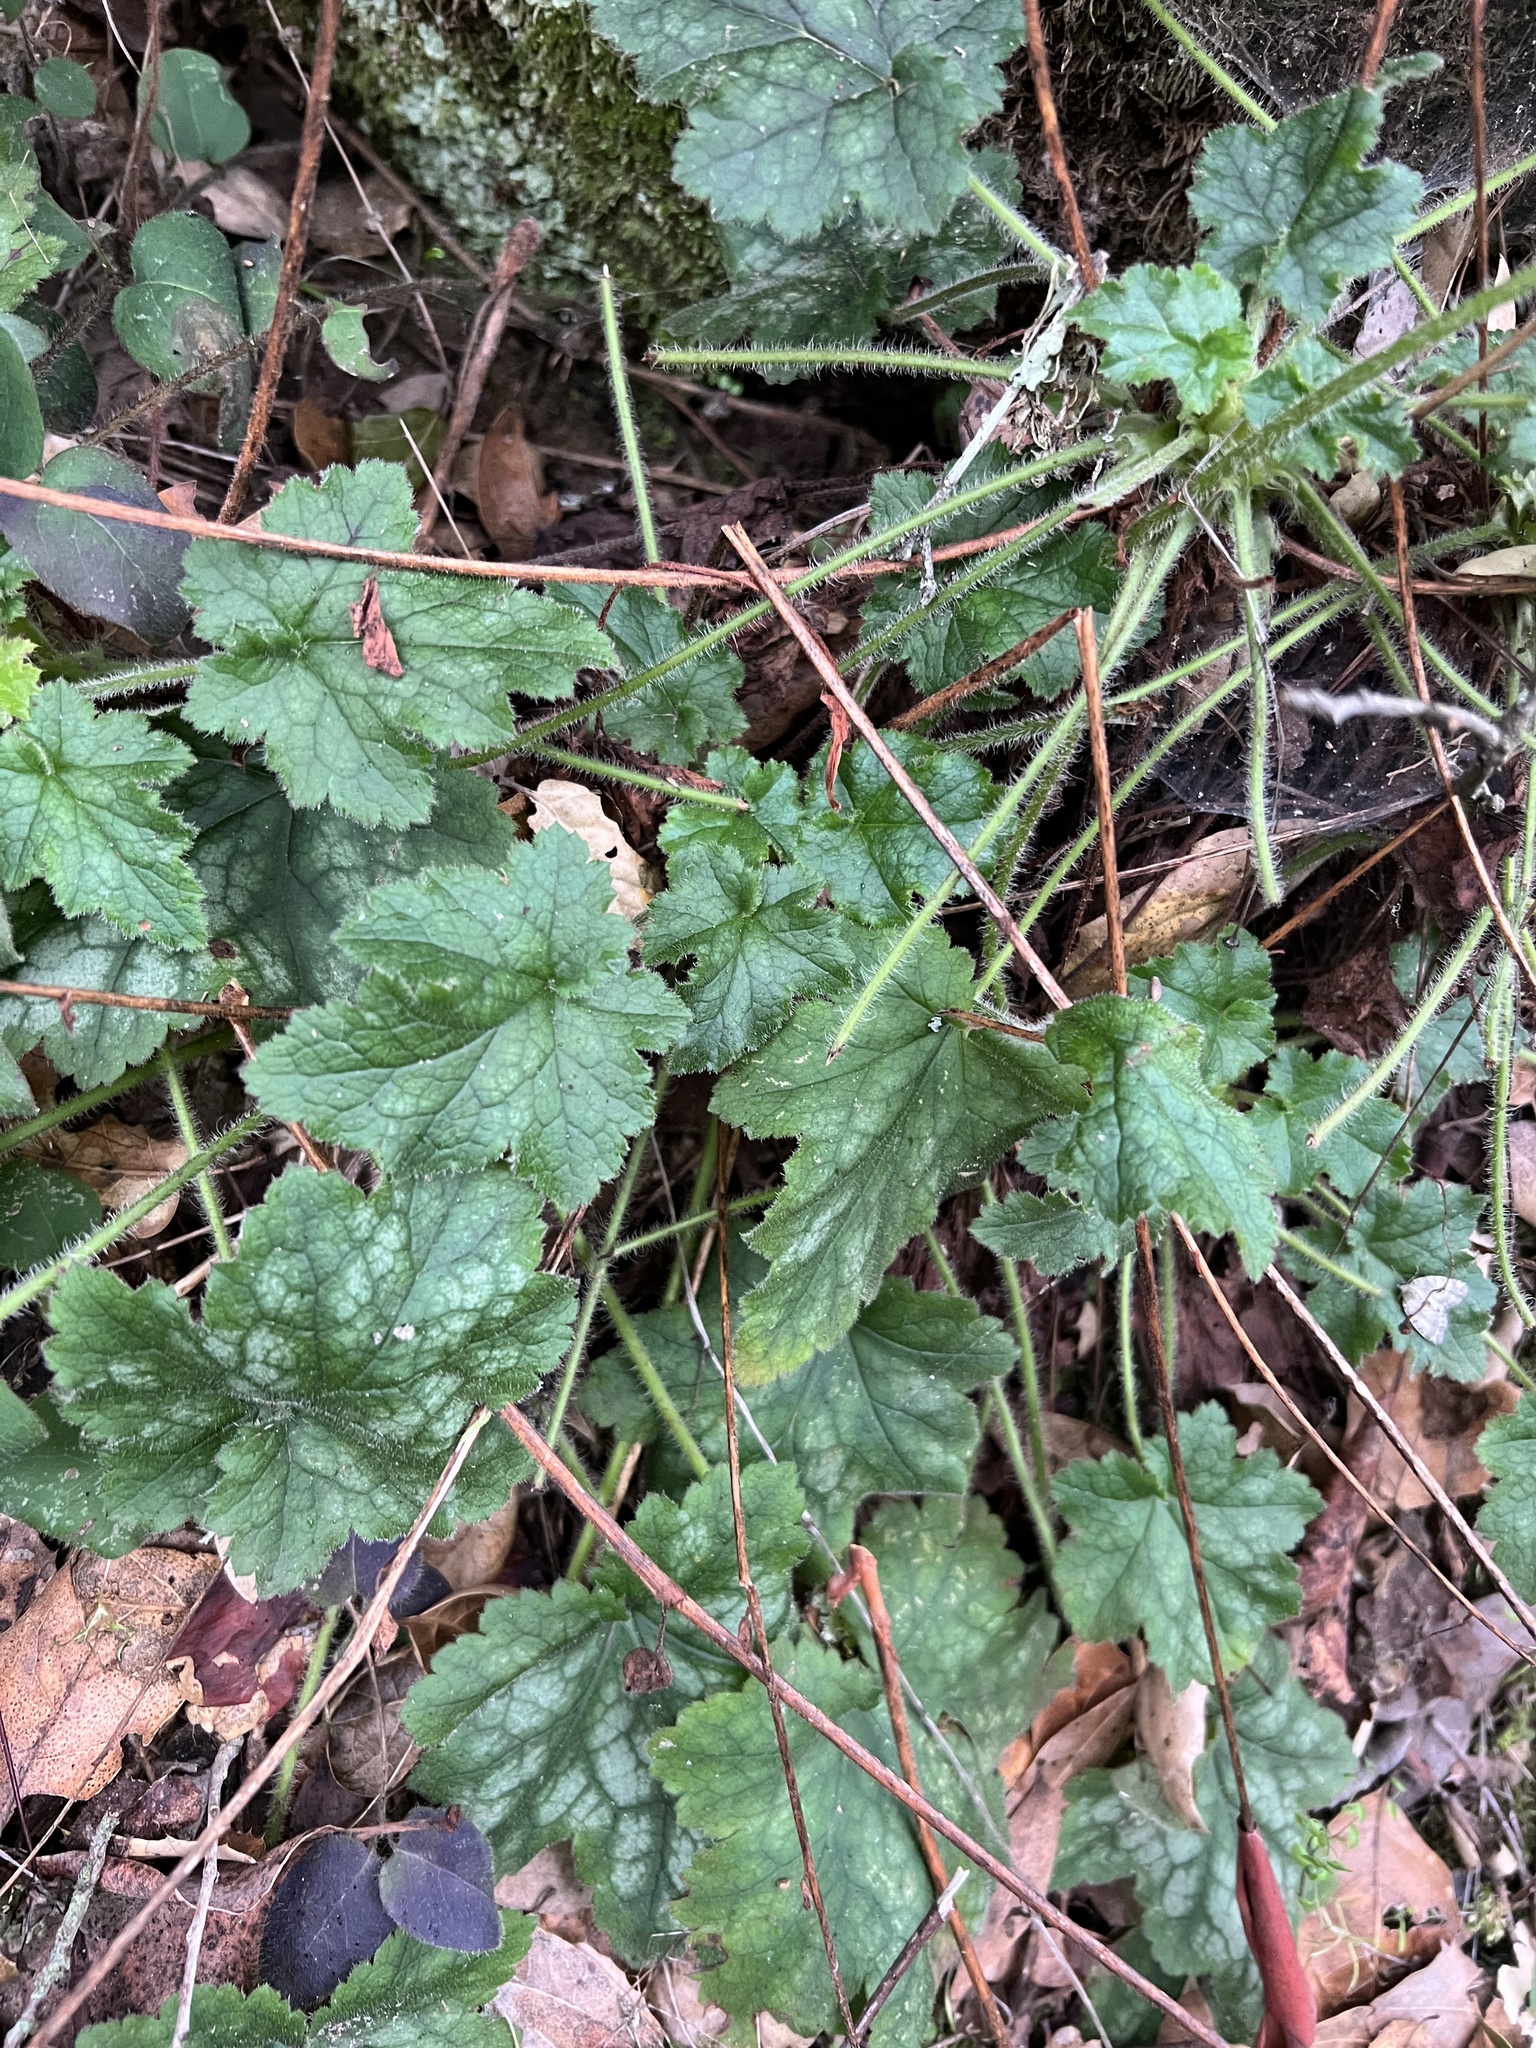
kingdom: Plantae
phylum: Tracheophyta
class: Magnoliopsida
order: Saxifragales
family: Saxifragaceae
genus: Heuchera
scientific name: Heuchera micrantha
